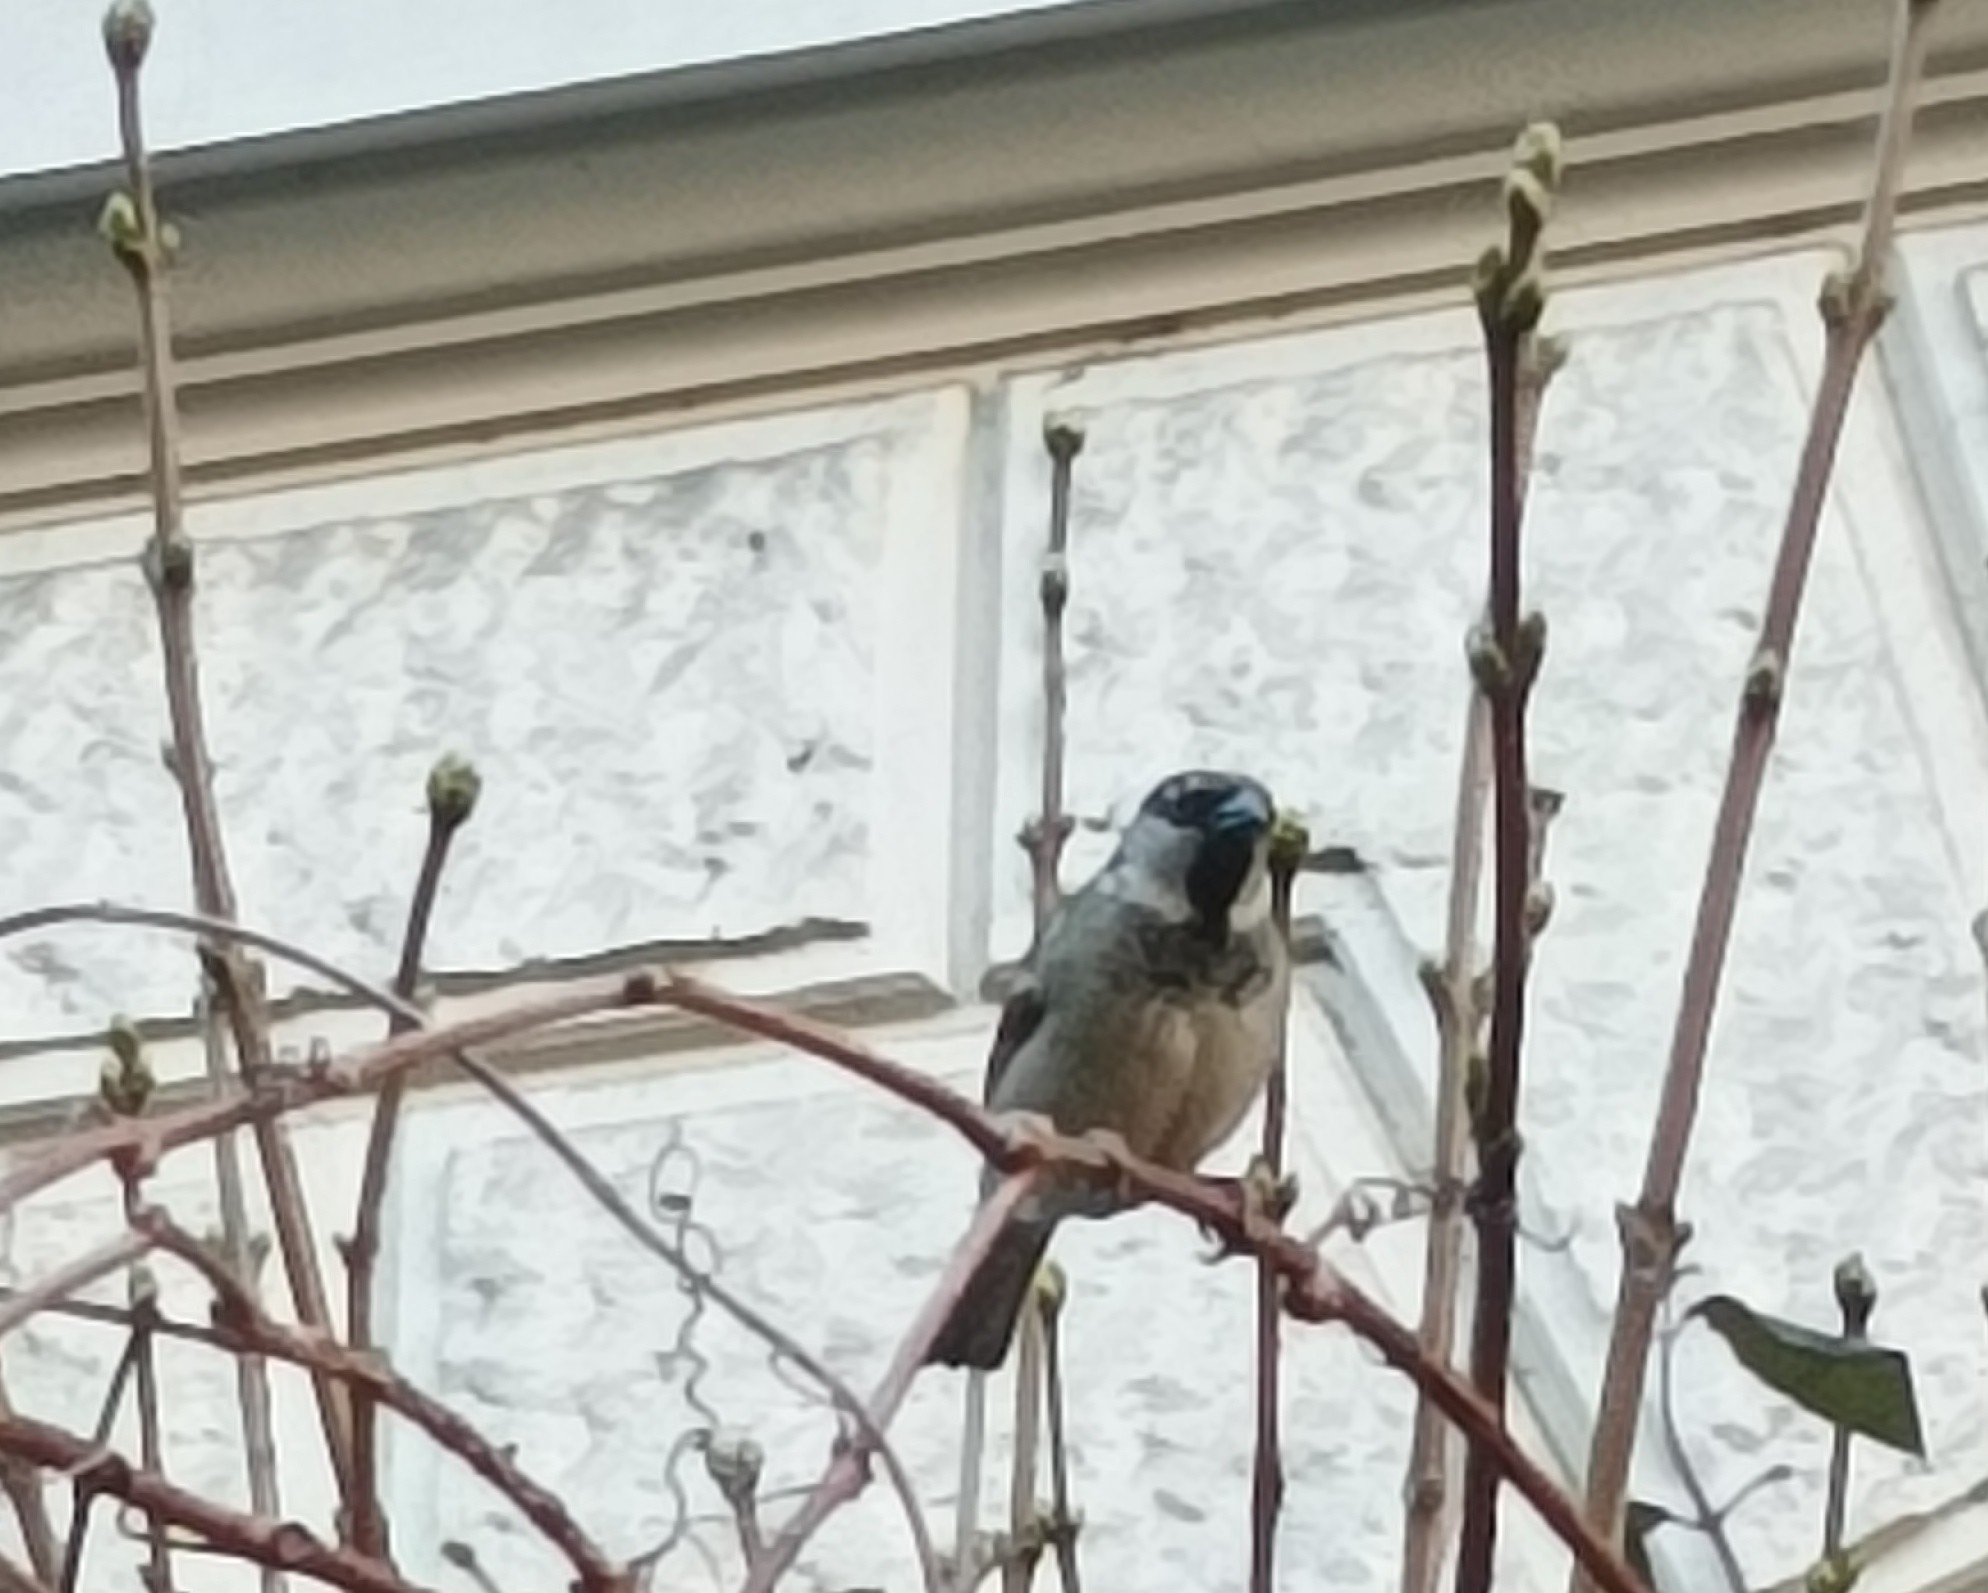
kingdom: Animalia
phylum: Chordata
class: Aves
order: Passeriformes
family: Passeridae
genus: Passer
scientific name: Passer domesticus
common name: House sparrow
